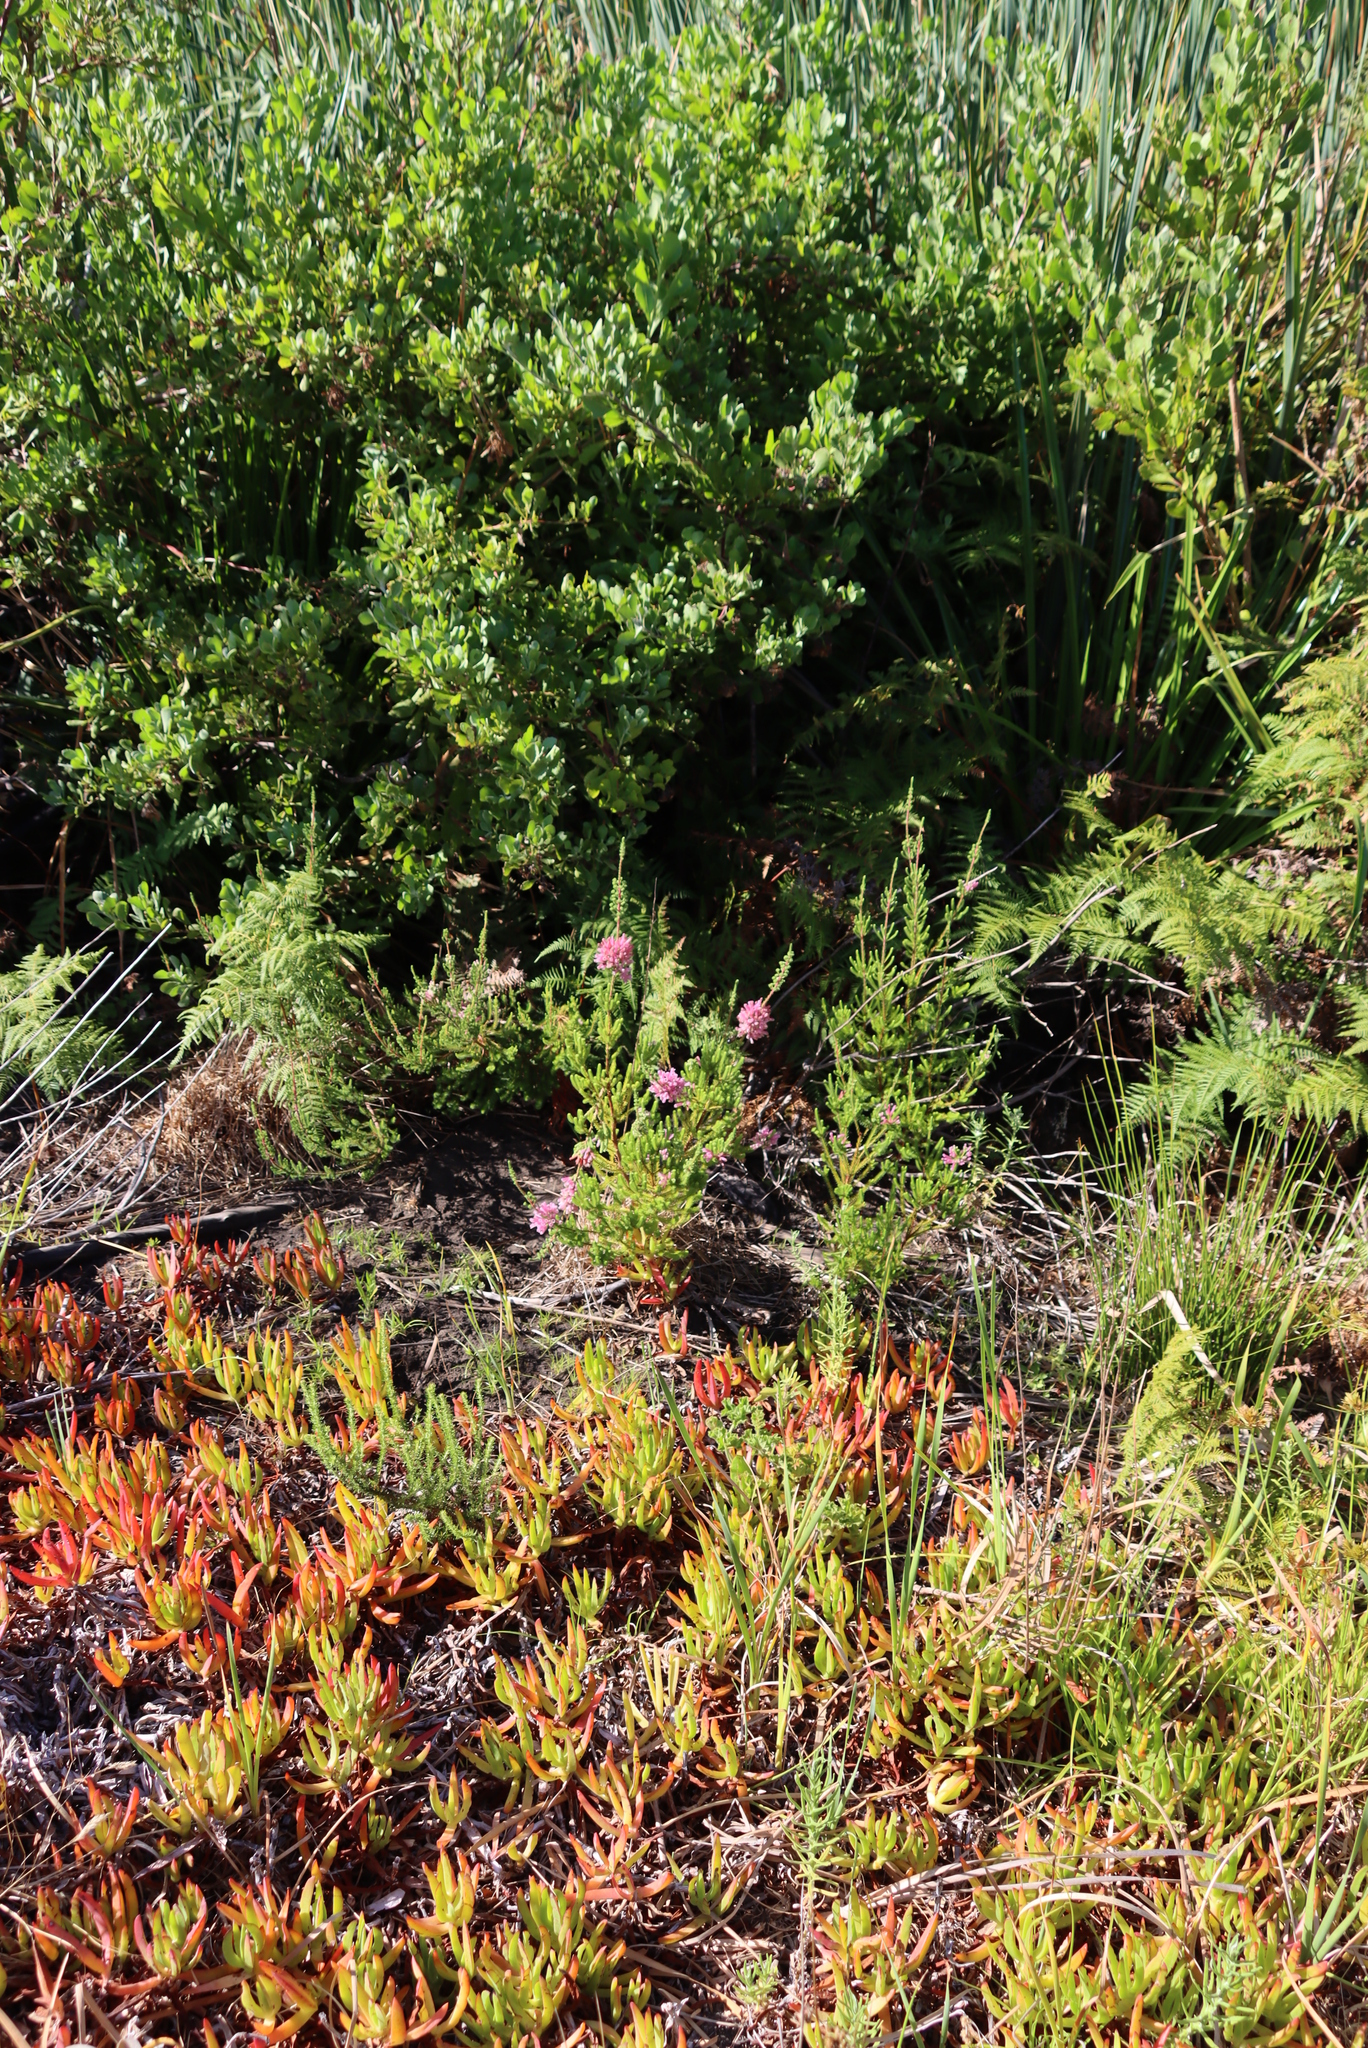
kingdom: Plantae
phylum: Tracheophyta
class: Magnoliopsida
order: Caryophyllales
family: Aizoaceae
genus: Carpobrotus
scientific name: Carpobrotus edulis
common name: Hottentot-fig
